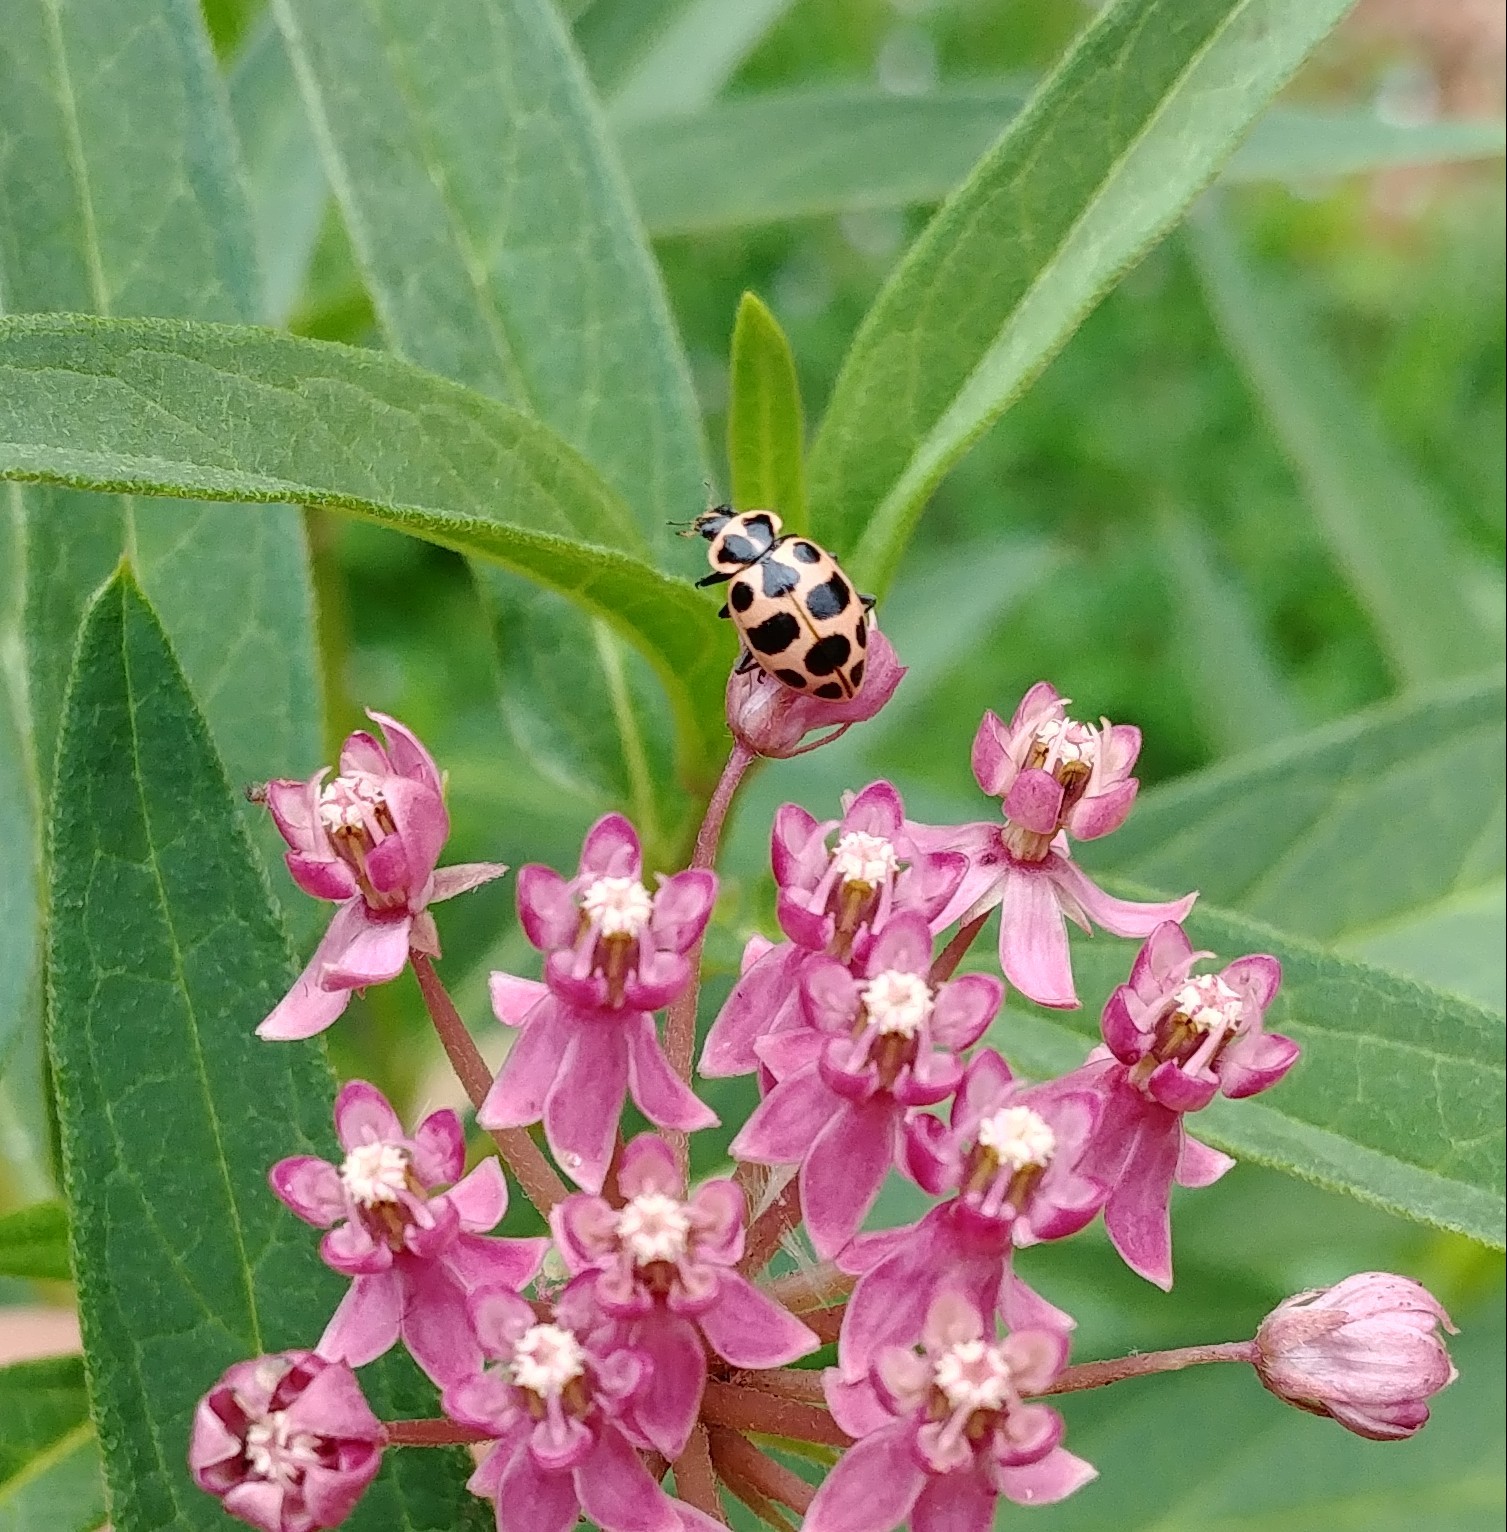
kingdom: Animalia
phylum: Arthropoda
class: Insecta
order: Coleoptera
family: Coccinellidae
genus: Coleomegilla
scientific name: Coleomegilla maculata
